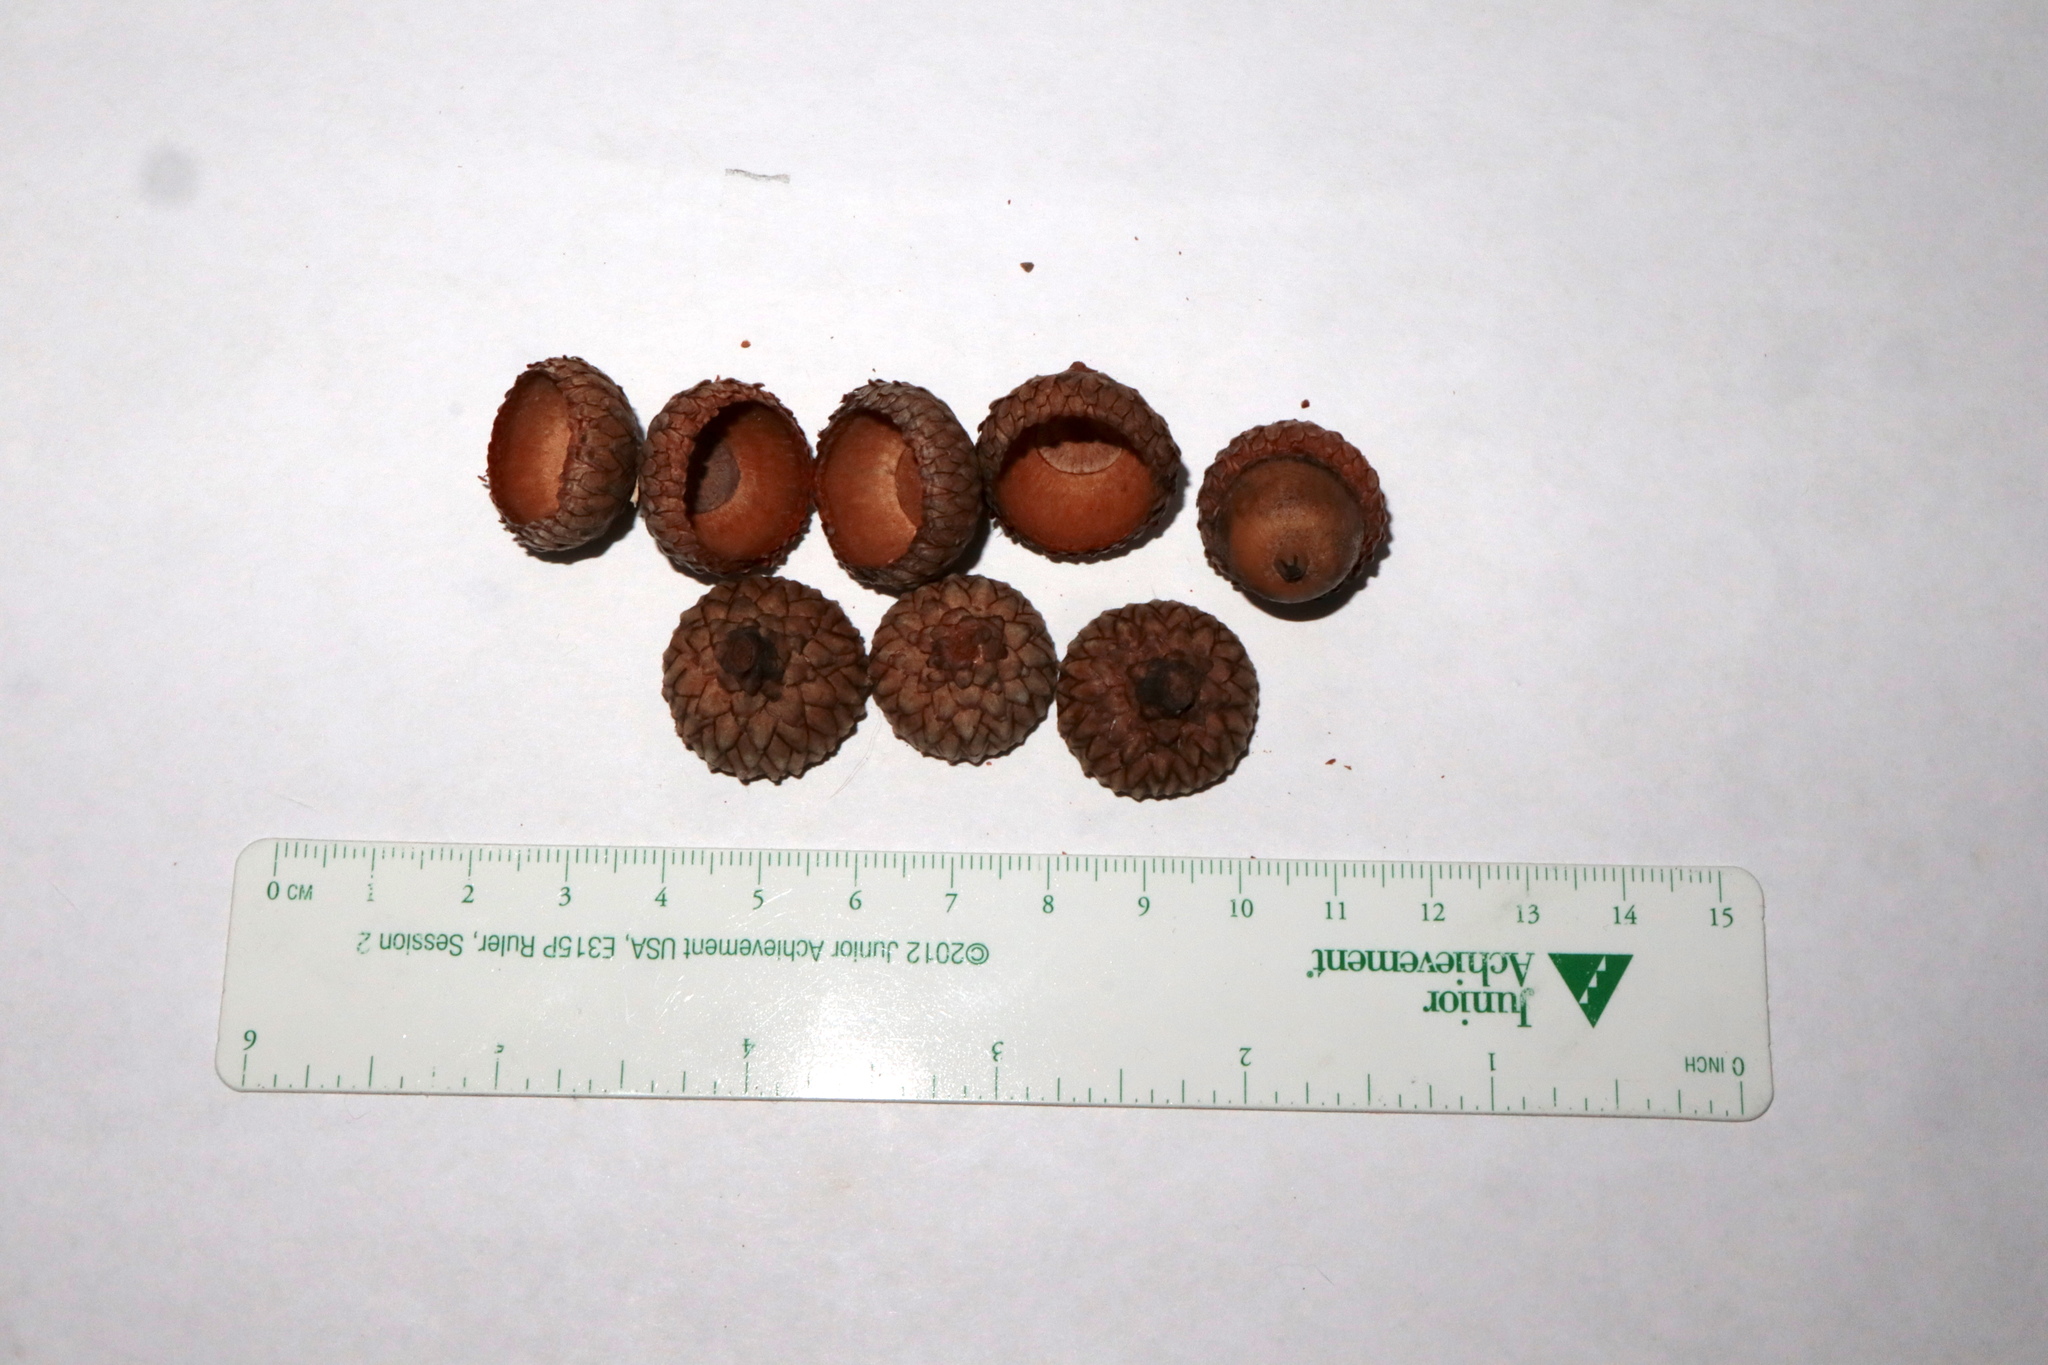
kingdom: Plantae
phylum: Tracheophyta
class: Magnoliopsida
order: Fagales
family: Fagaceae
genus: Quercus
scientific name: Quercus velutina
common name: Black oak
